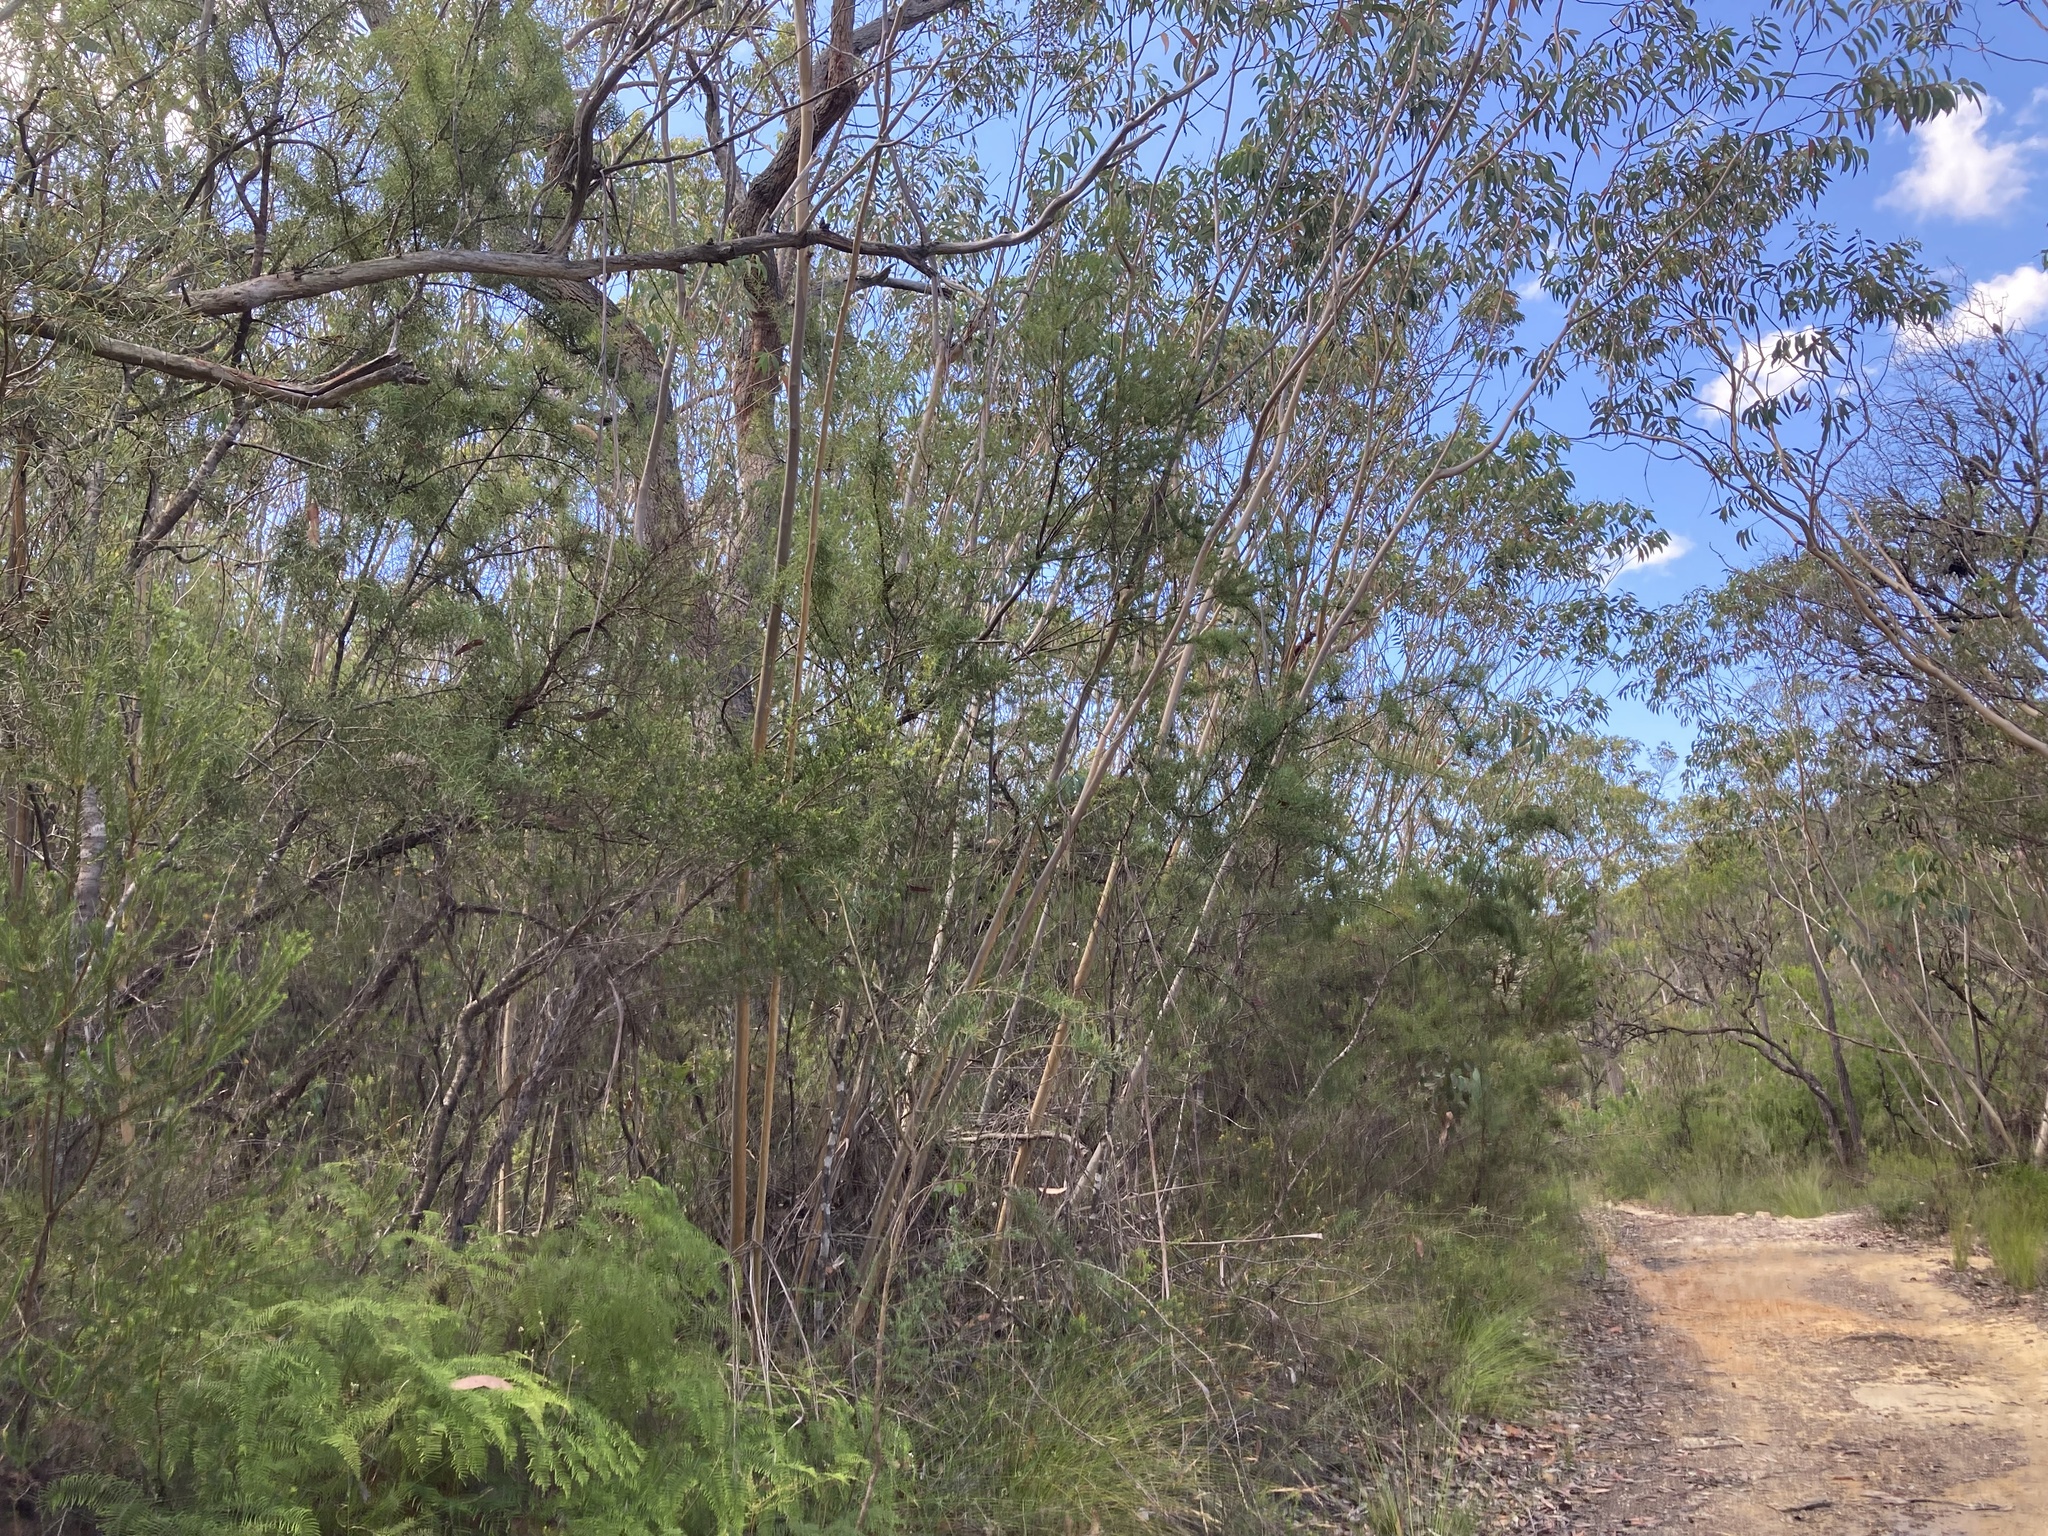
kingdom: Plantae
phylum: Tracheophyta
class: Magnoliopsida
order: Myrtales
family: Myrtaceae
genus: Eucalyptus
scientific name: Eucalyptus luehmanniana
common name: Yellow-top mallee ash
